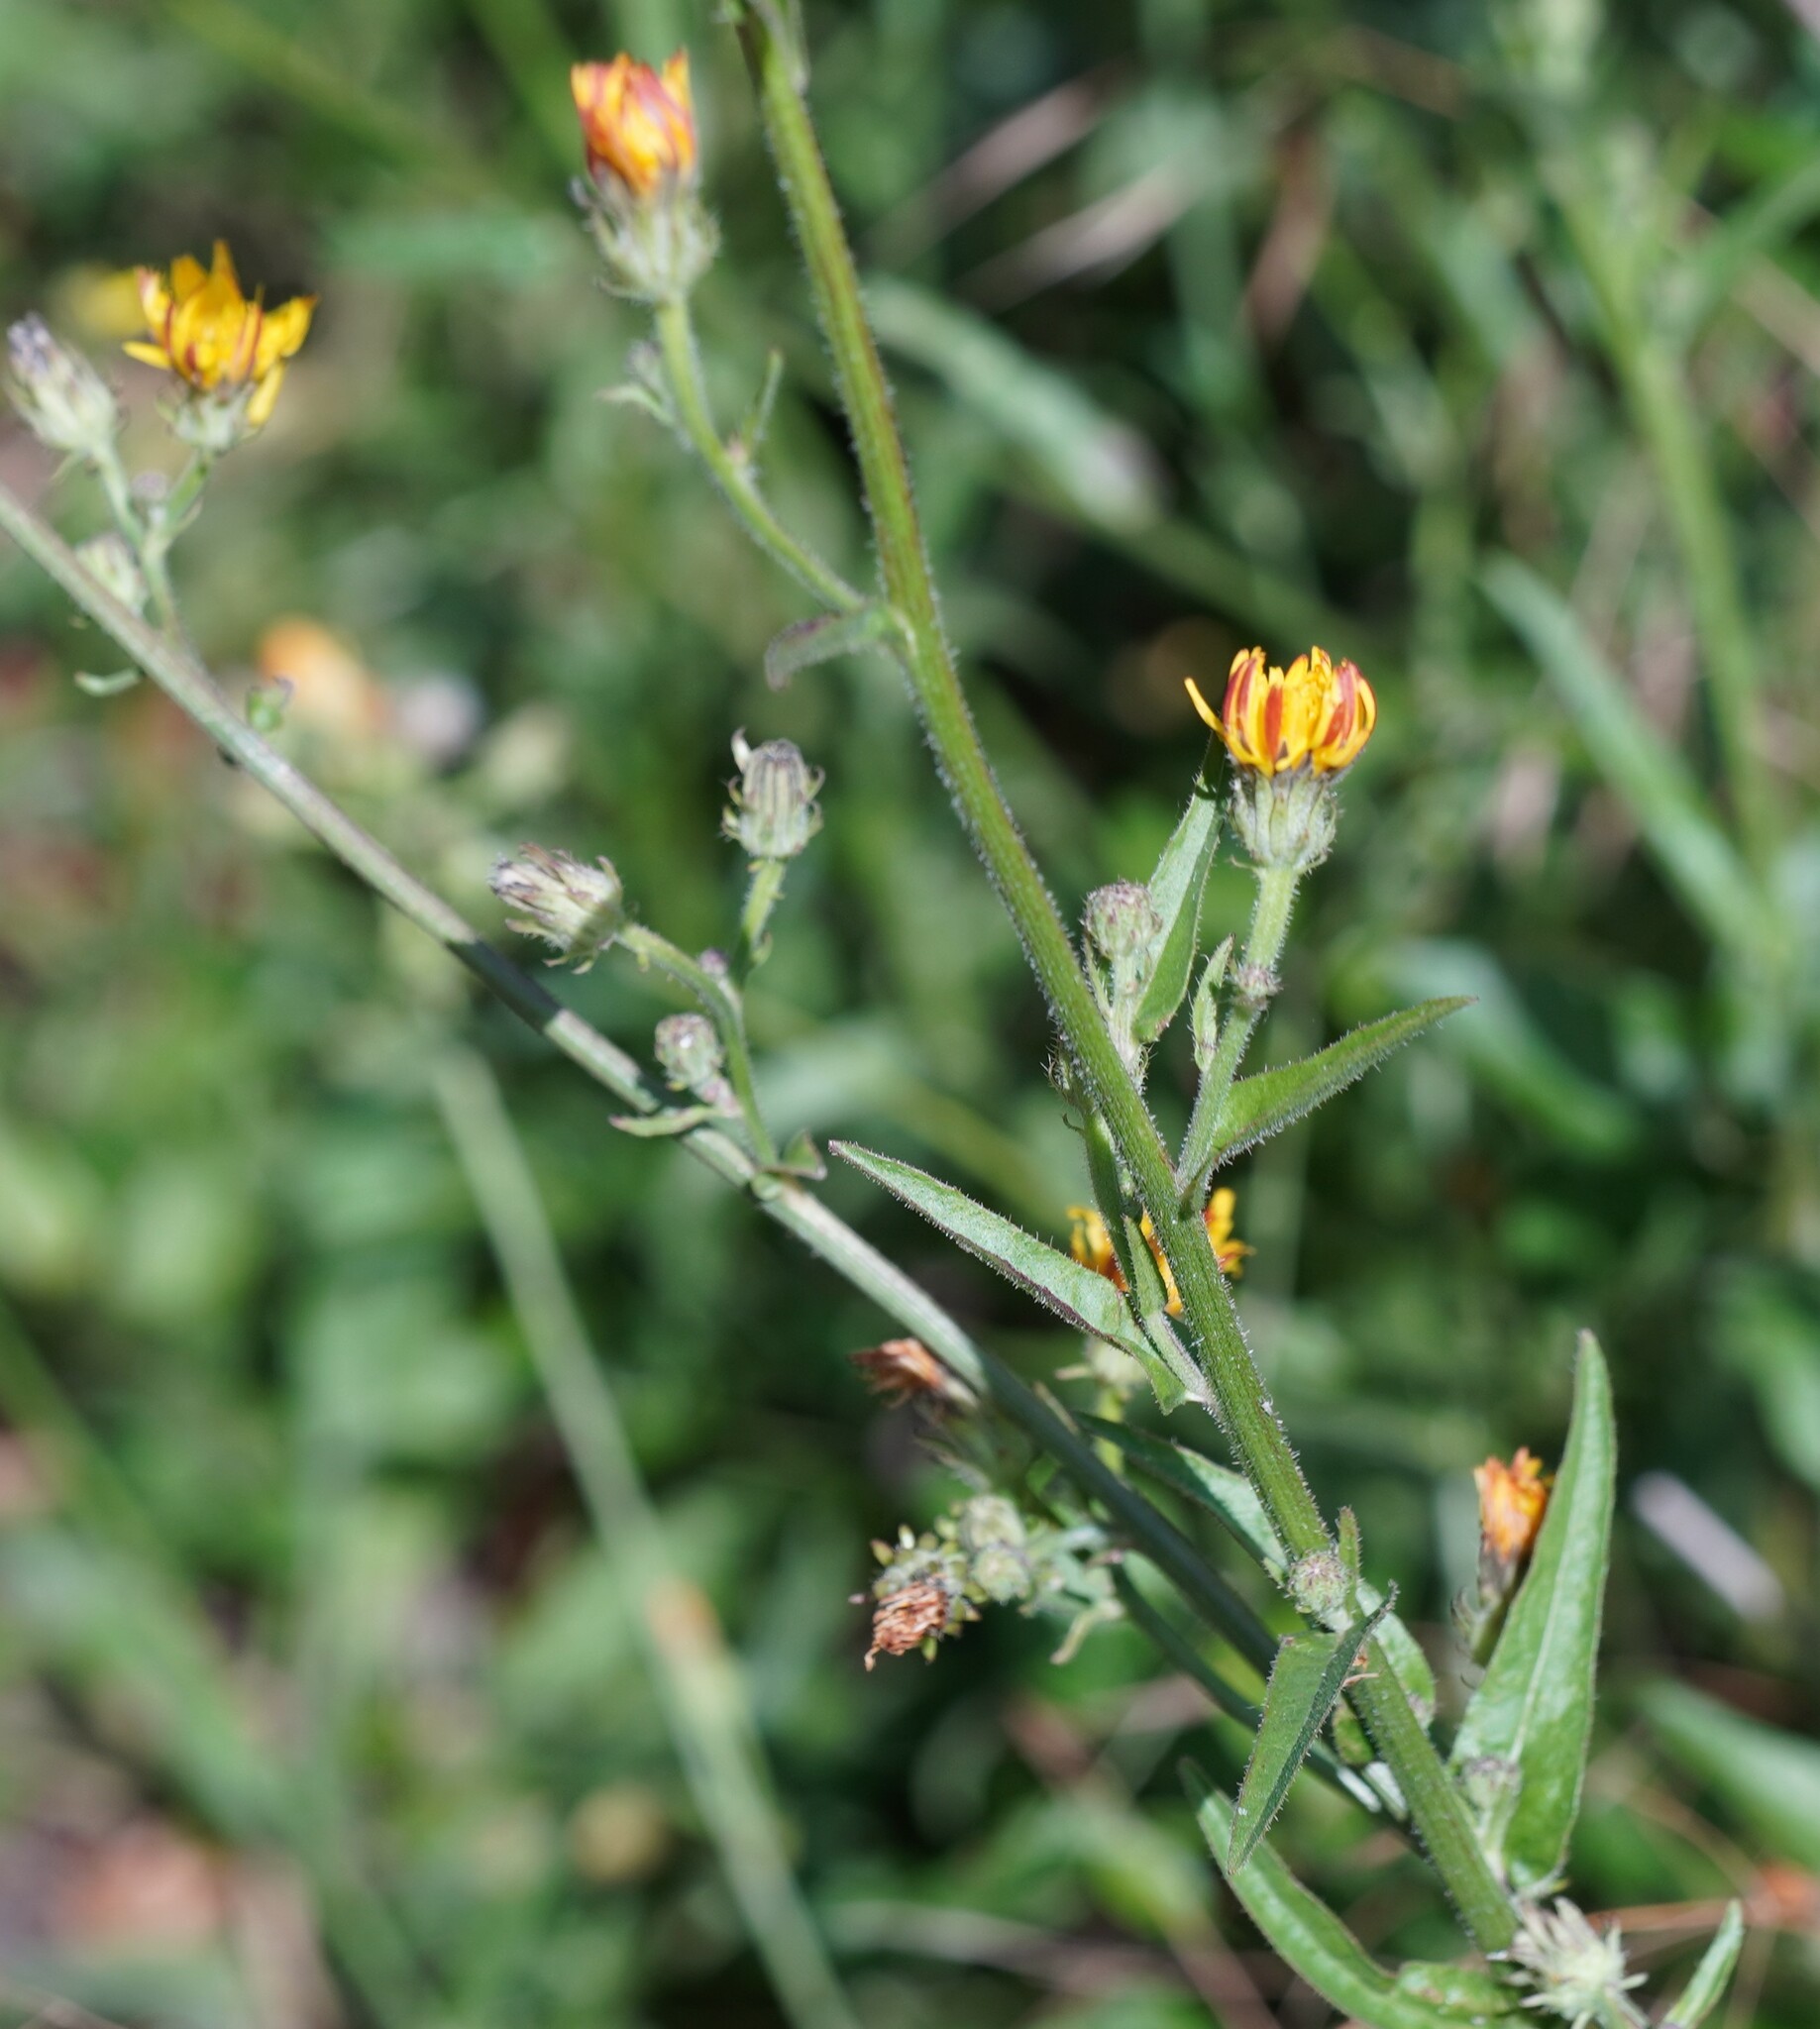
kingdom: Plantae
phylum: Tracheophyta
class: Magnoliopsida
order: Asterales
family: Asteraceae
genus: Picris
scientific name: Picris hieracioides
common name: Hawkweed oxtongue
